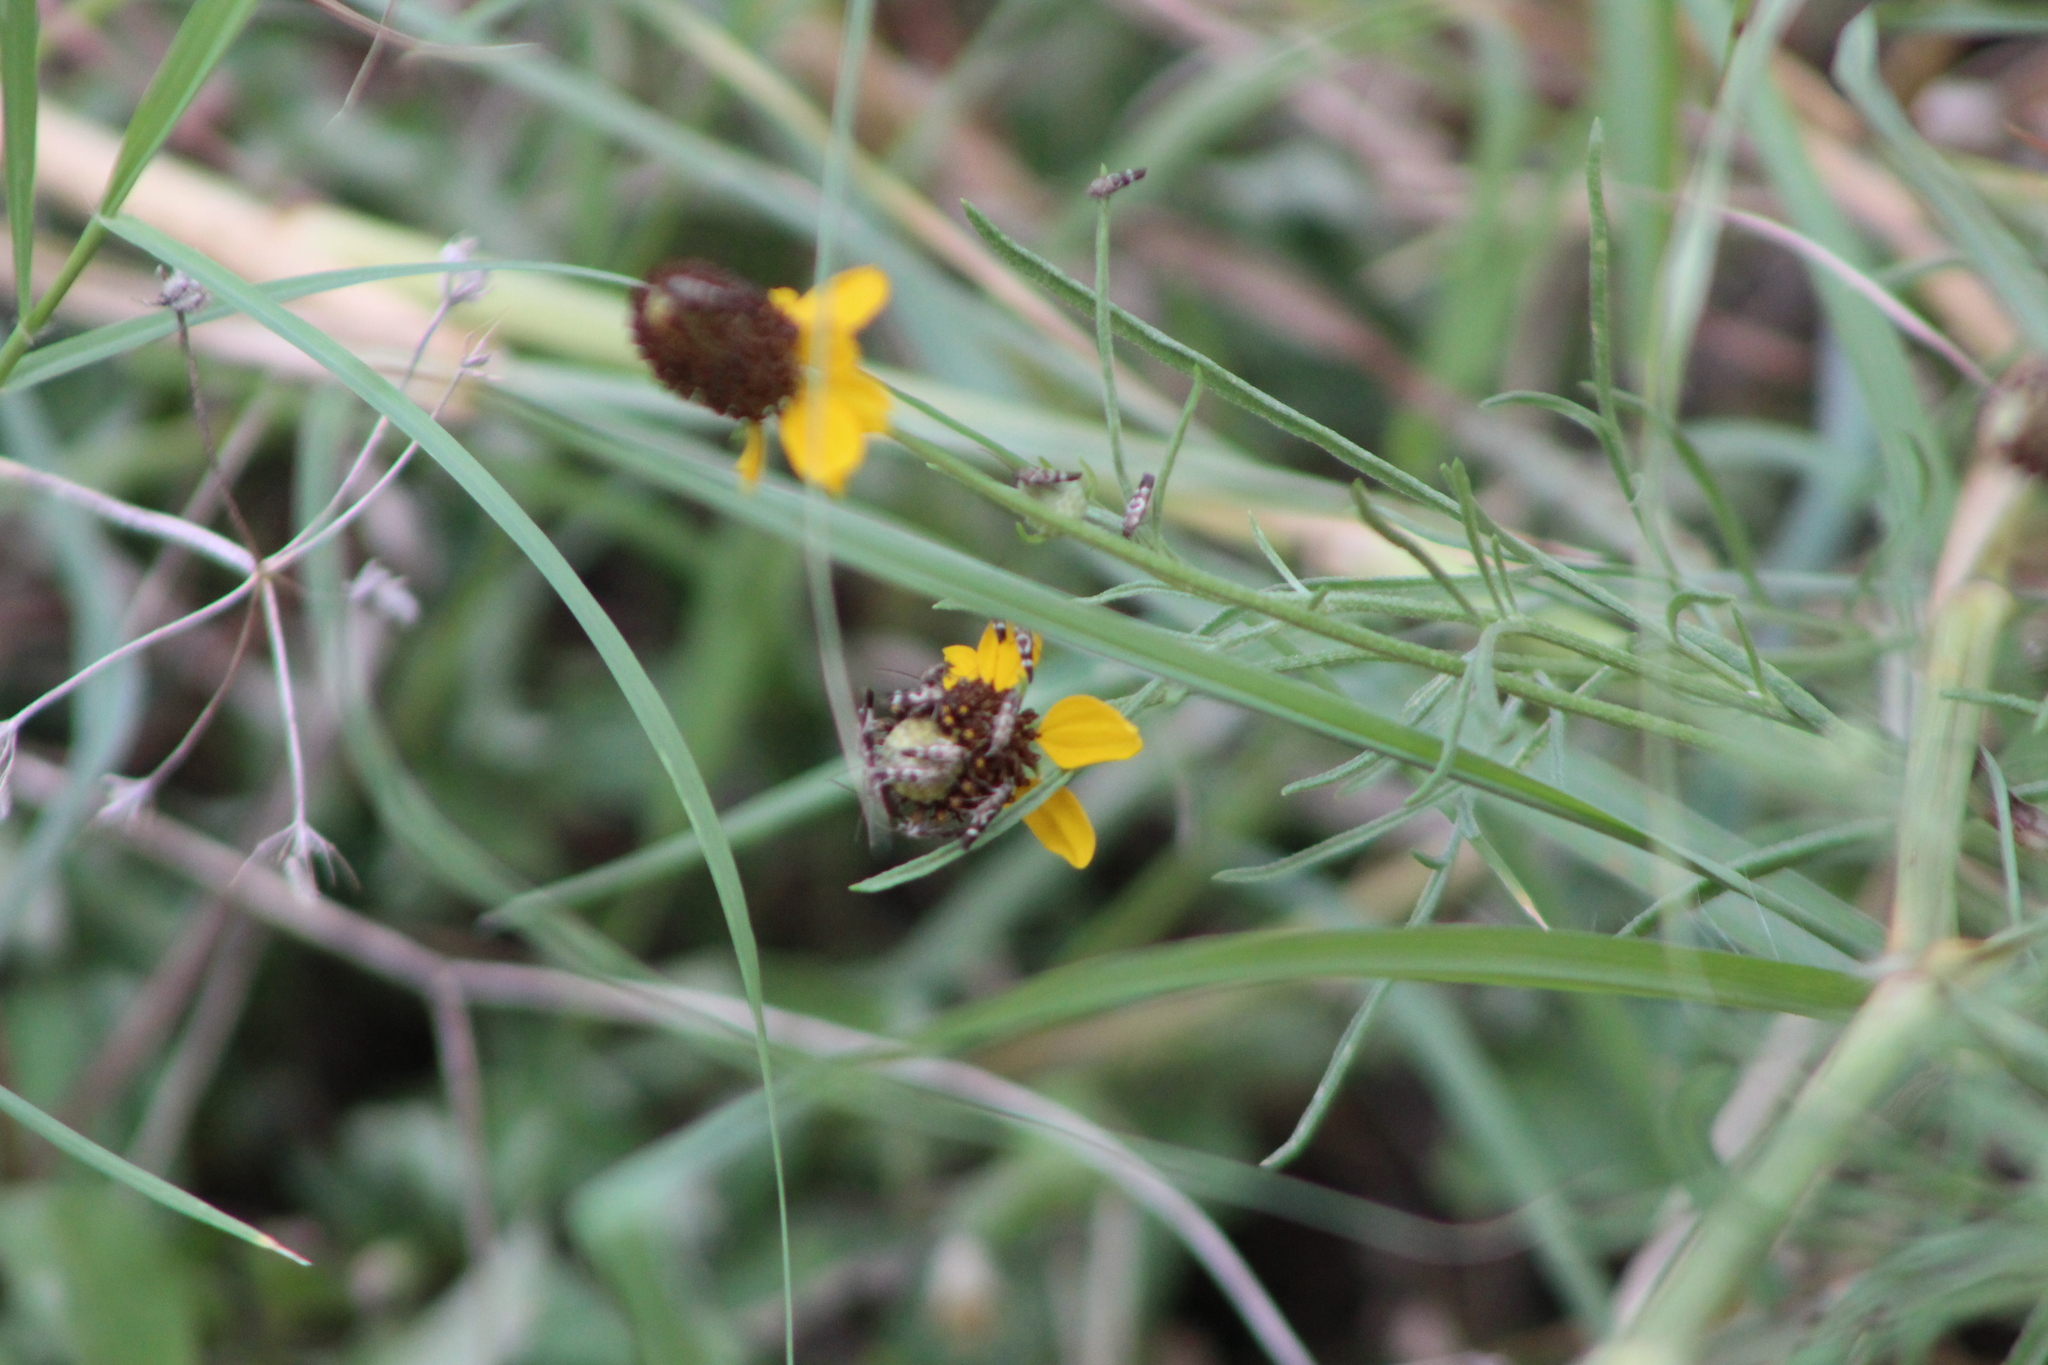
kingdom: Plantae
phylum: Tracheophyta
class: Magnoliopsida
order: Asterales
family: Asteraceae
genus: Ratibida
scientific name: Ratibida columnifera
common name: Prairie coneflower
